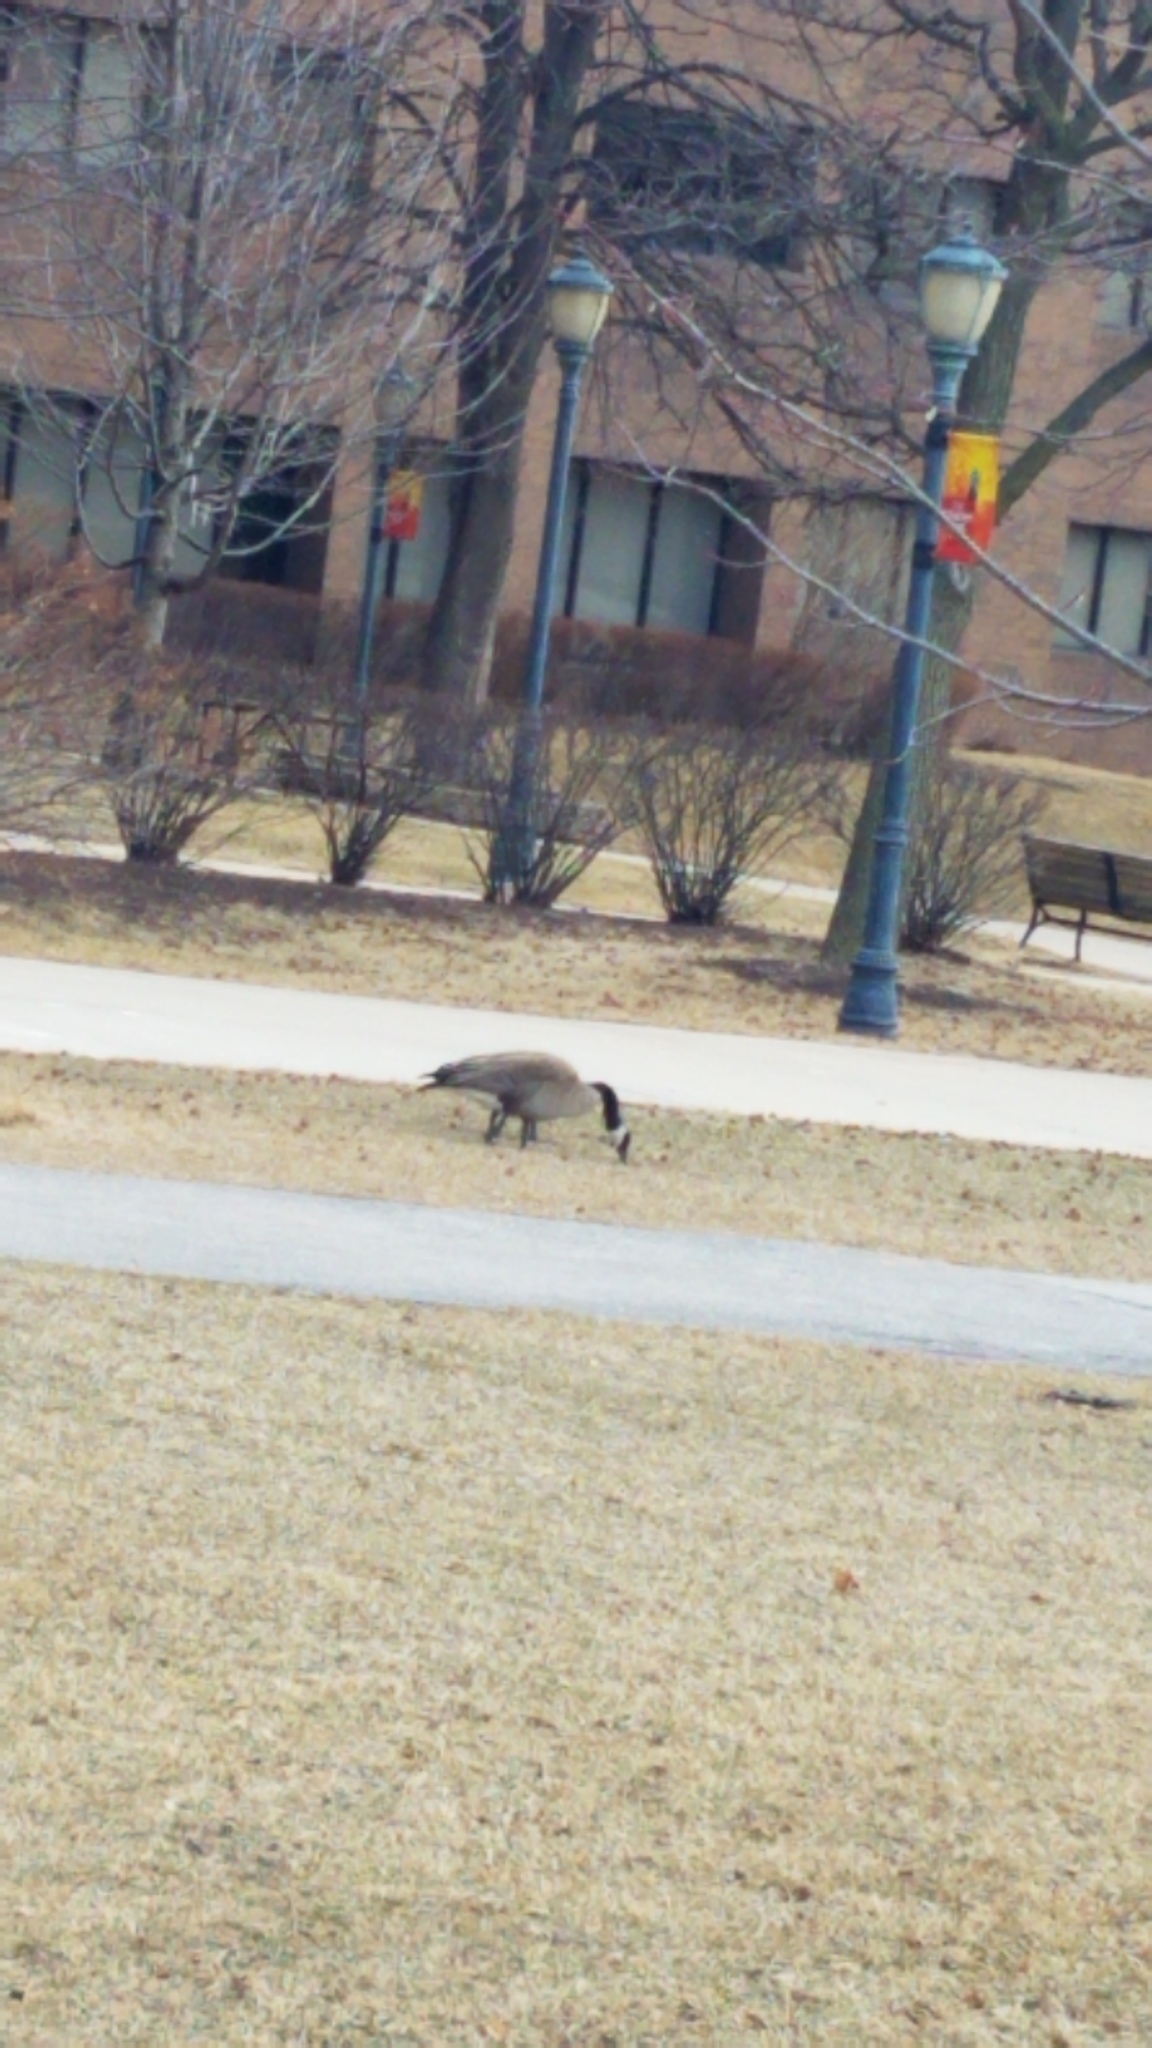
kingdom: Animalia
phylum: Chordata
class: Aves
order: Anseriformes
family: Anatidae
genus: Branta
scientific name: Branta canadensis
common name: Canada goose
